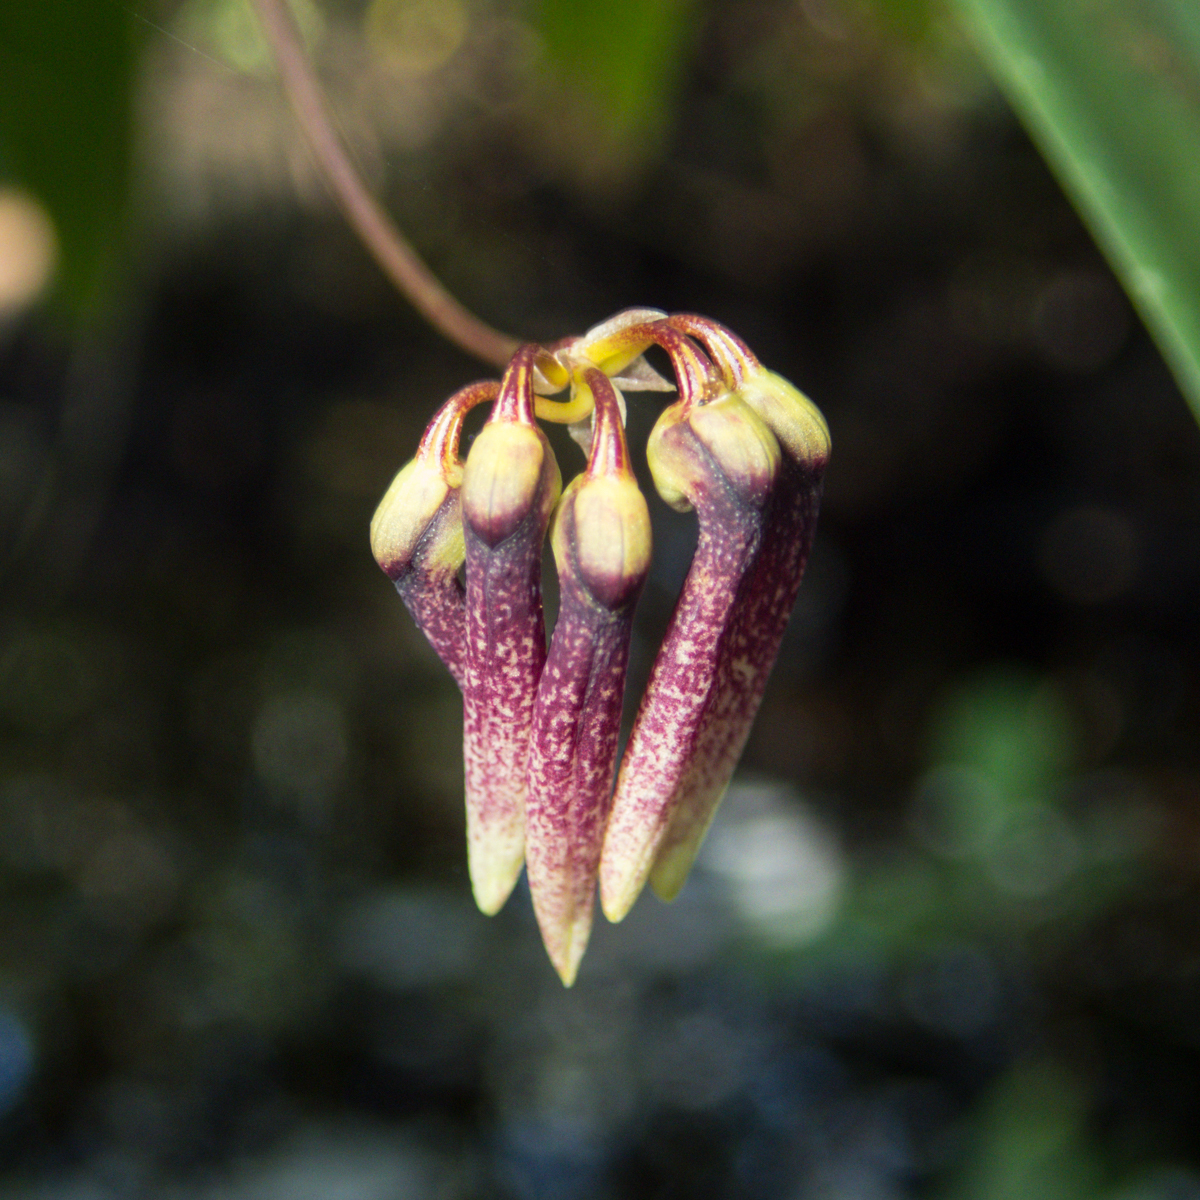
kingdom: Plantae
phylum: Tracheophyta
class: Liliopsida
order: Asparagales
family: Orchidaceae
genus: Bulbophyllum
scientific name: Bulbophyllum lepidum
